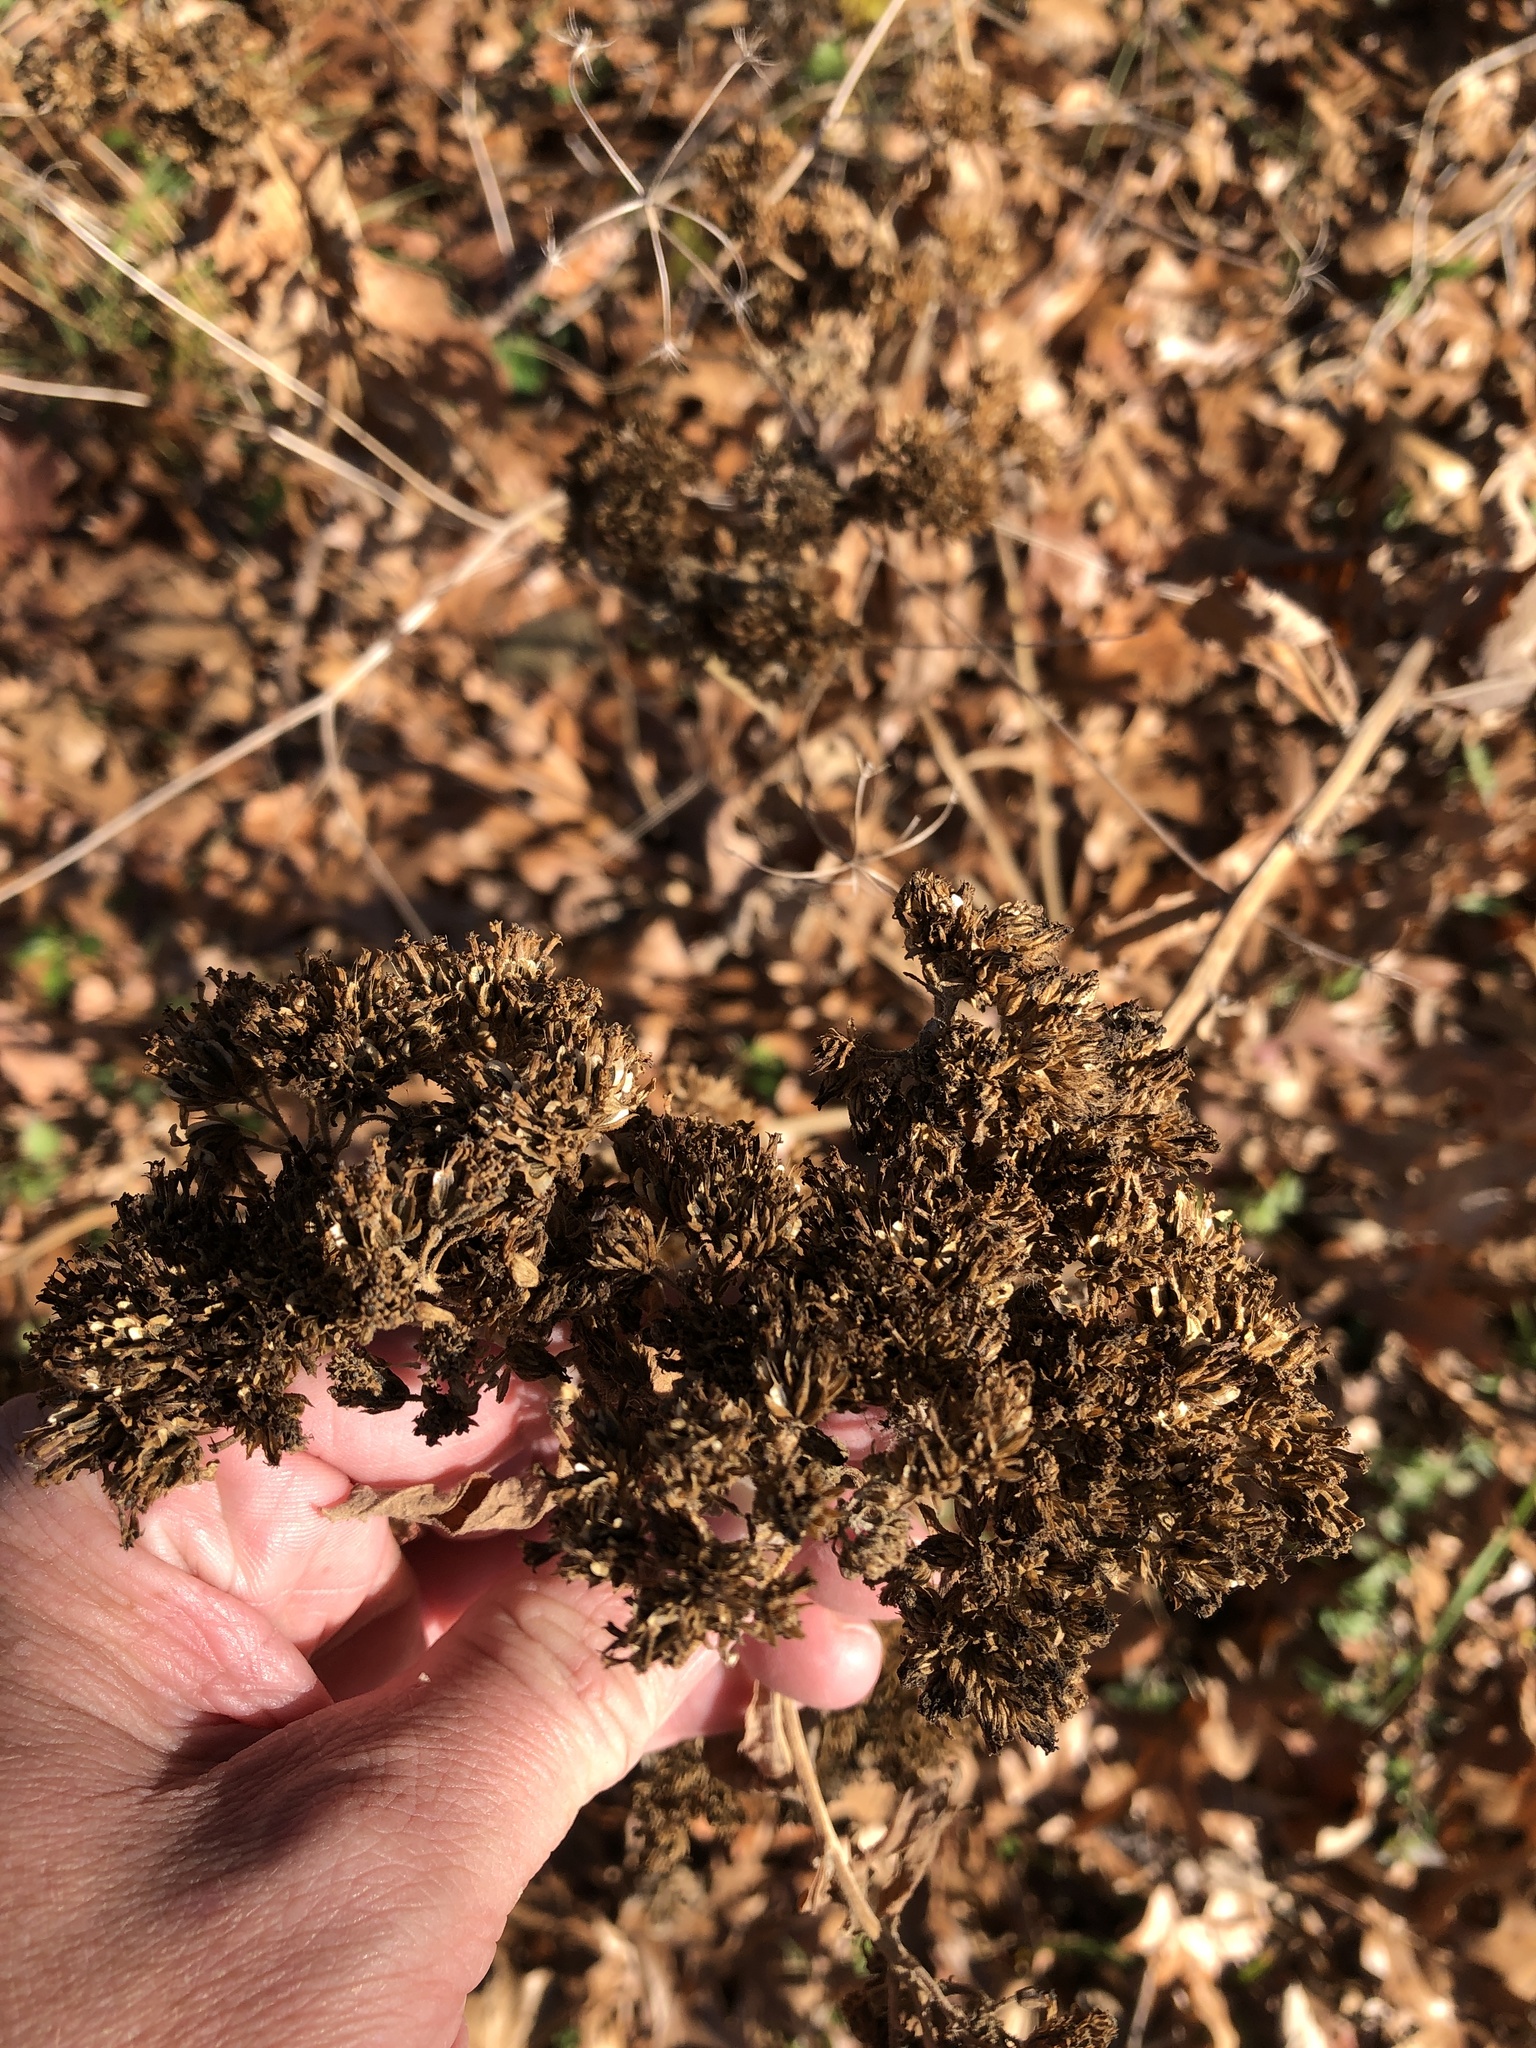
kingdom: Plantae
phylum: Tracheophyta
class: Magnoliopsida
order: Asterales
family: Asteraceae
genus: Verbesina
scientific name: Verbesina virginica
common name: Frostweed
